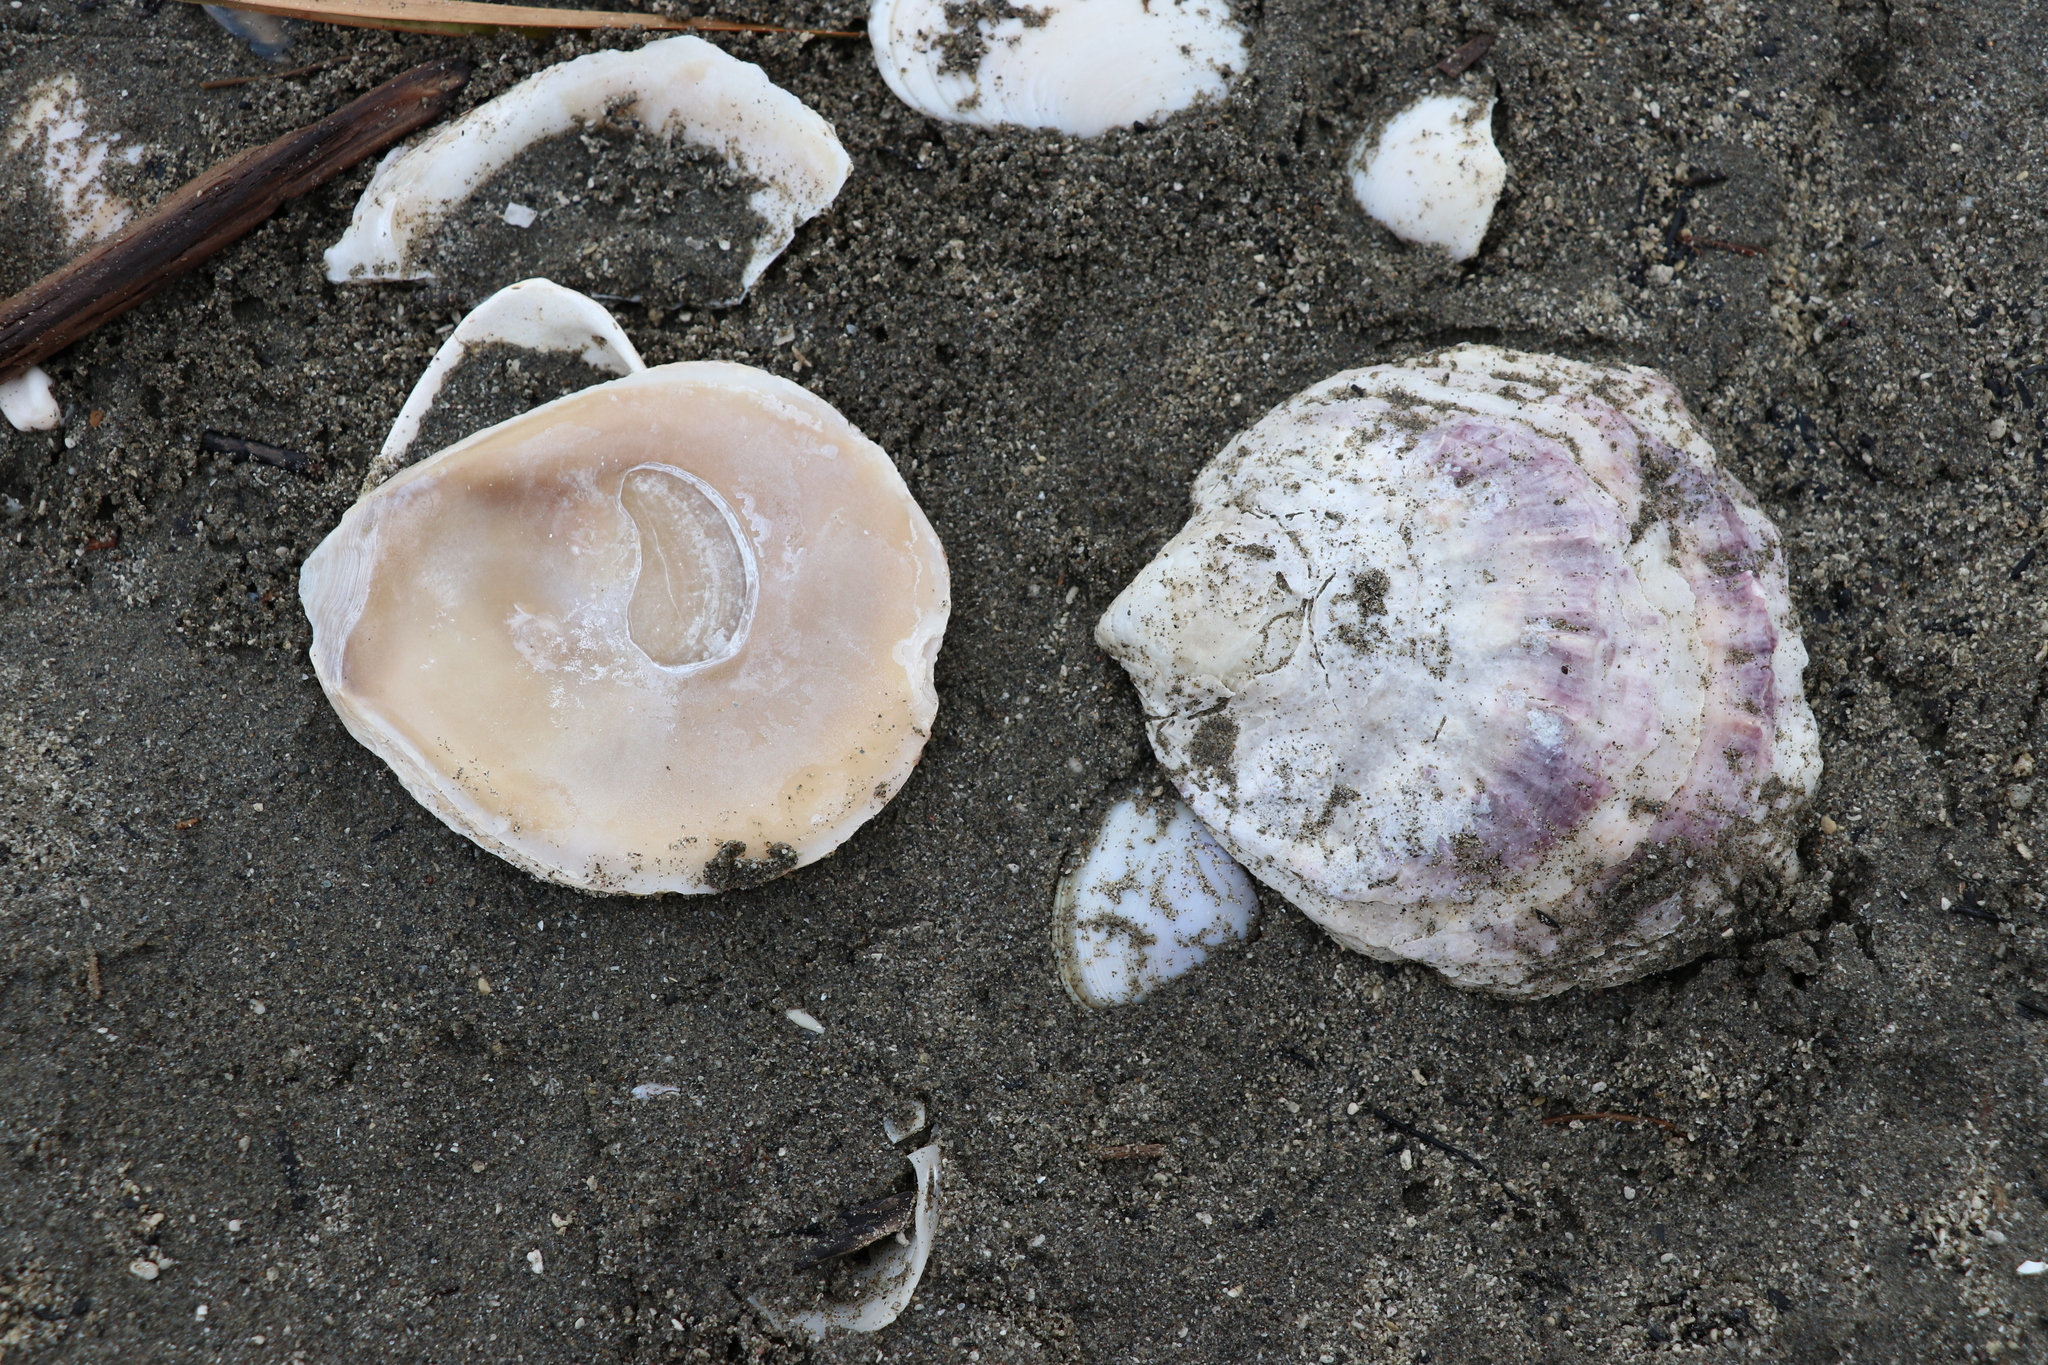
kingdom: Animalia
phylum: Mollusca
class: Bivalvia
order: Ostreida
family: Ostreidae
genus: Ostrea
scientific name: Ostrea chilensis
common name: Chilean oyster
